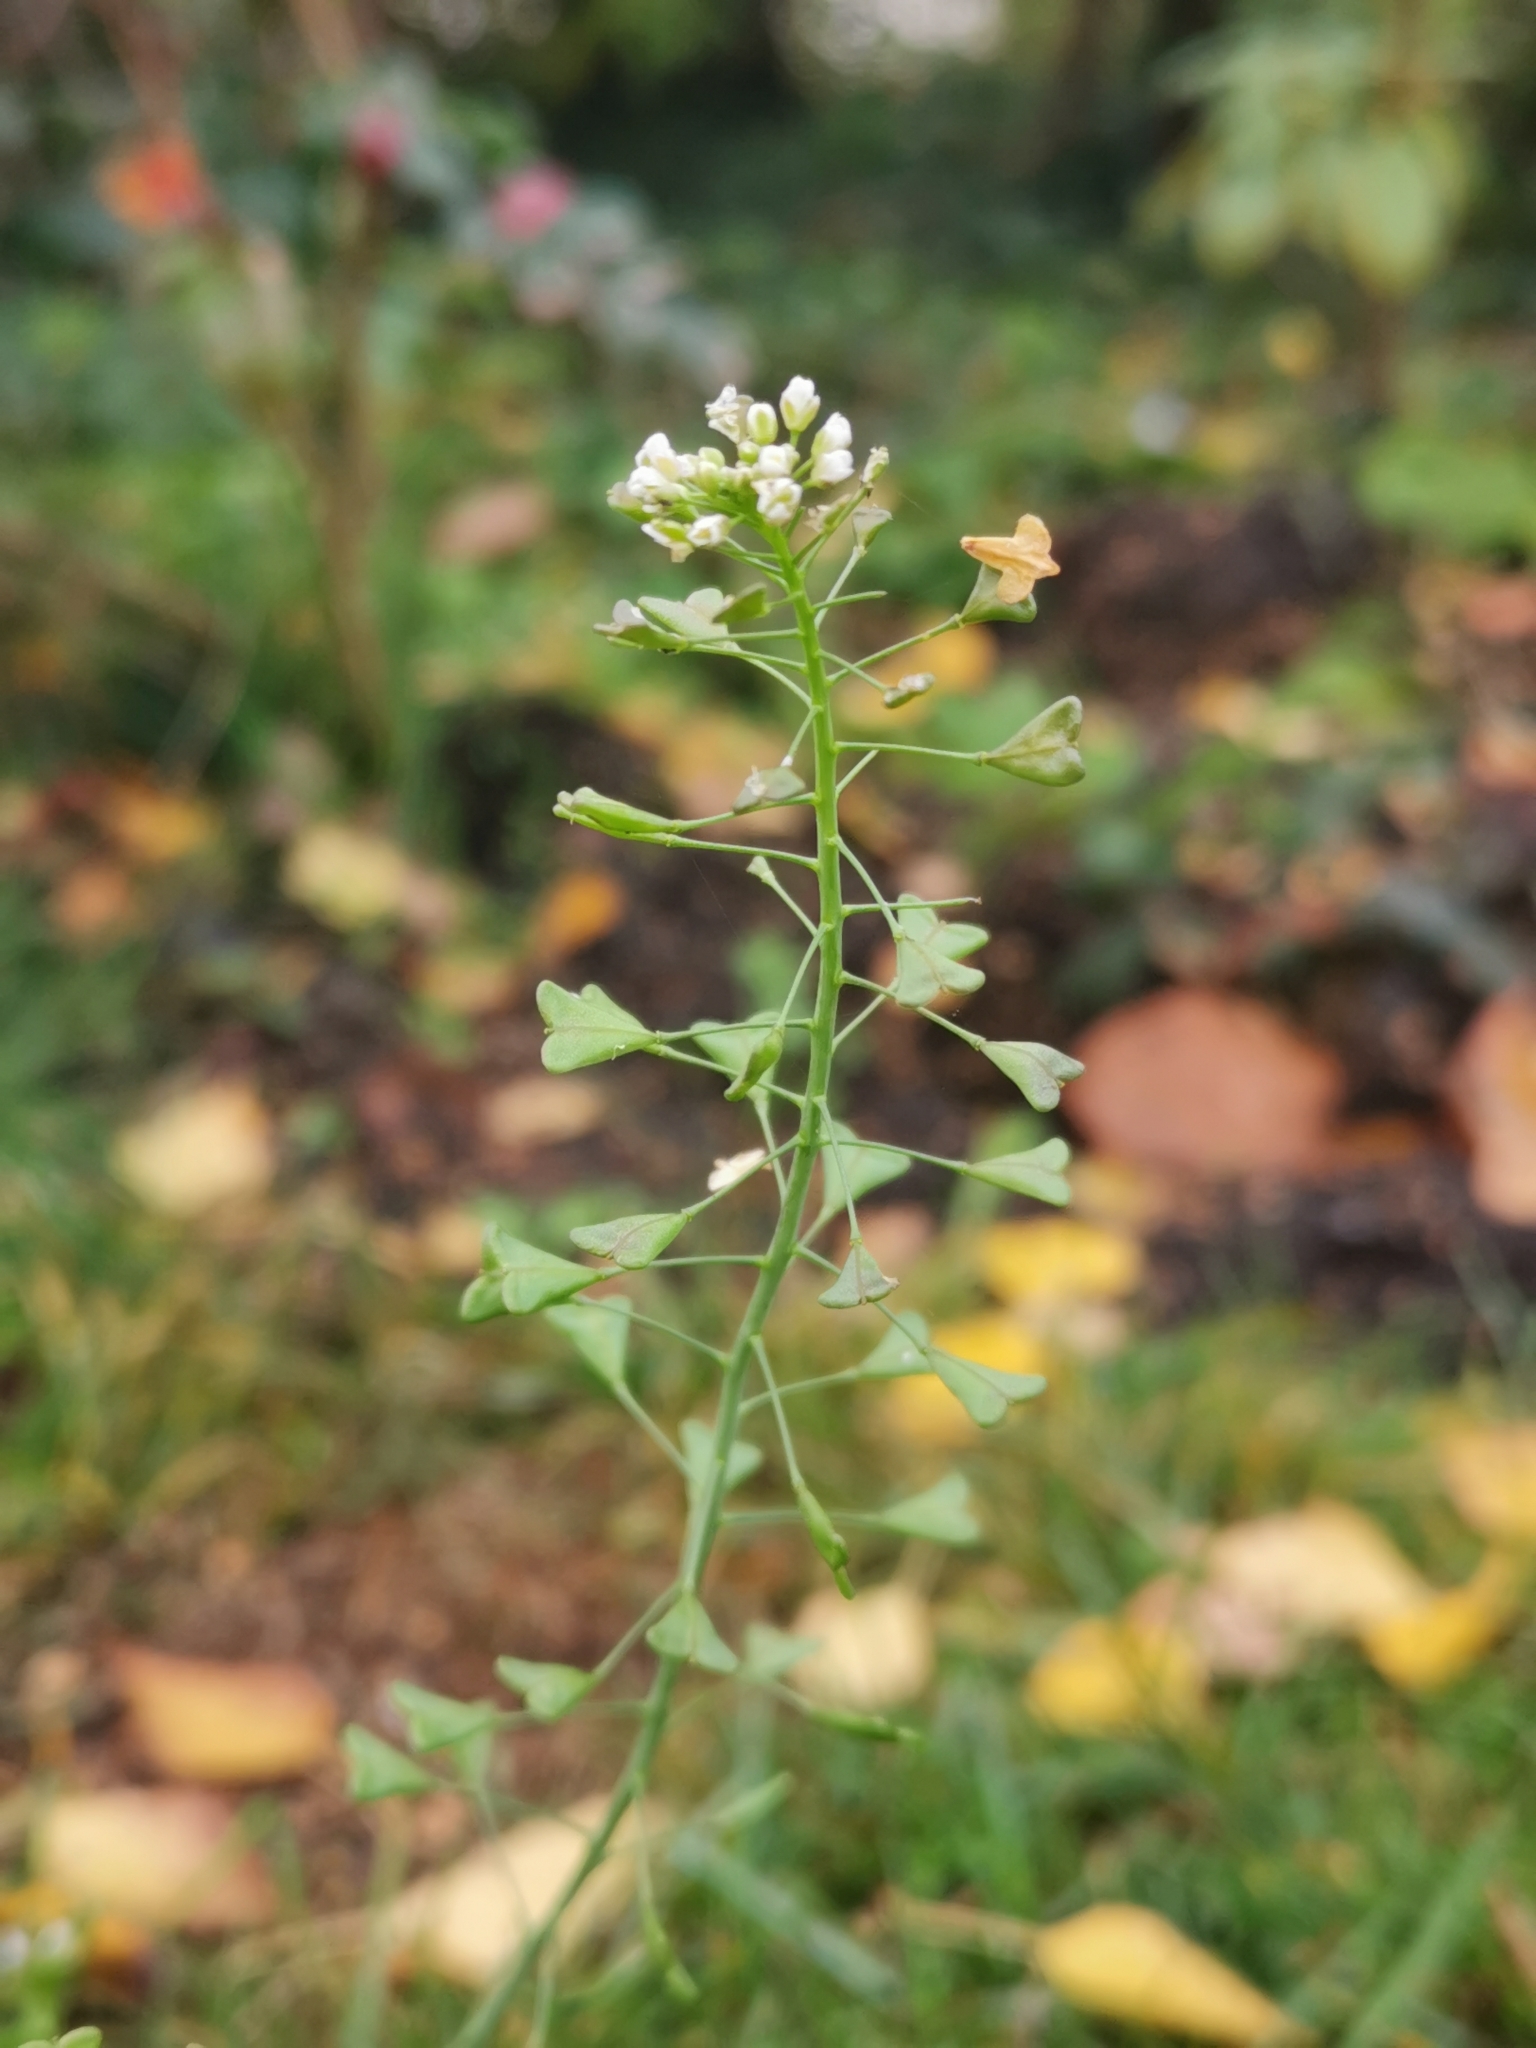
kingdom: Plantae
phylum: Tracheophyta
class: Magnoliopsida
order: Brassicales
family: Brassicaceae
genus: Capsella
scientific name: Capsella bursa-pastoris
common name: Shepherd's purse
